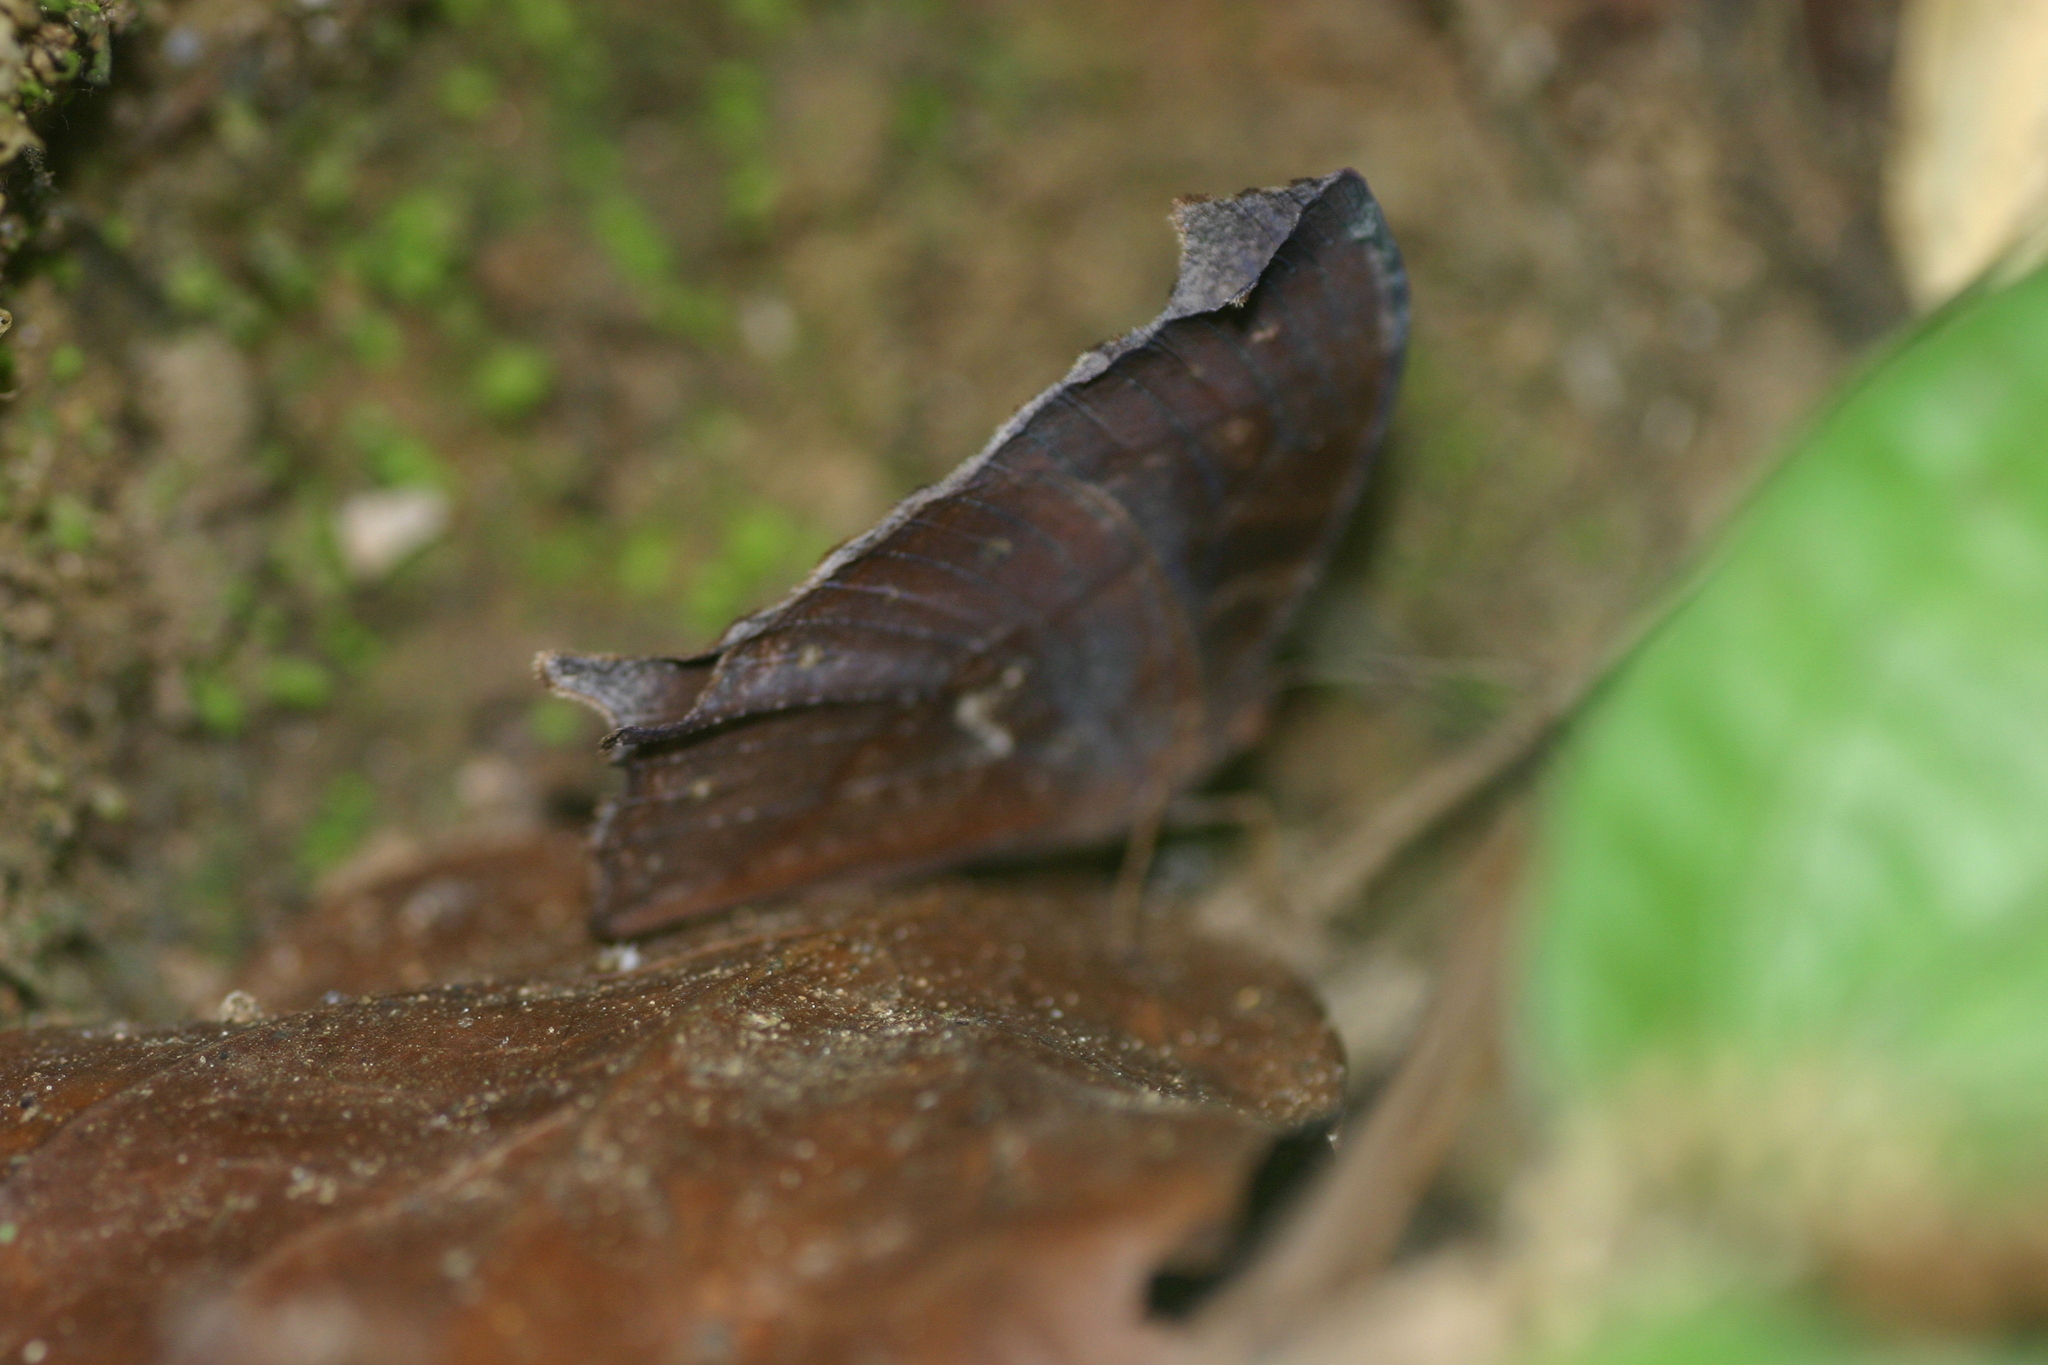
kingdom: Animalia
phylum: Arthropoda
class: Insecta
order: Lepidoptera
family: Nymphalidae
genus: Melanitis
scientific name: Melanitis phedima
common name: Dark evening brown
